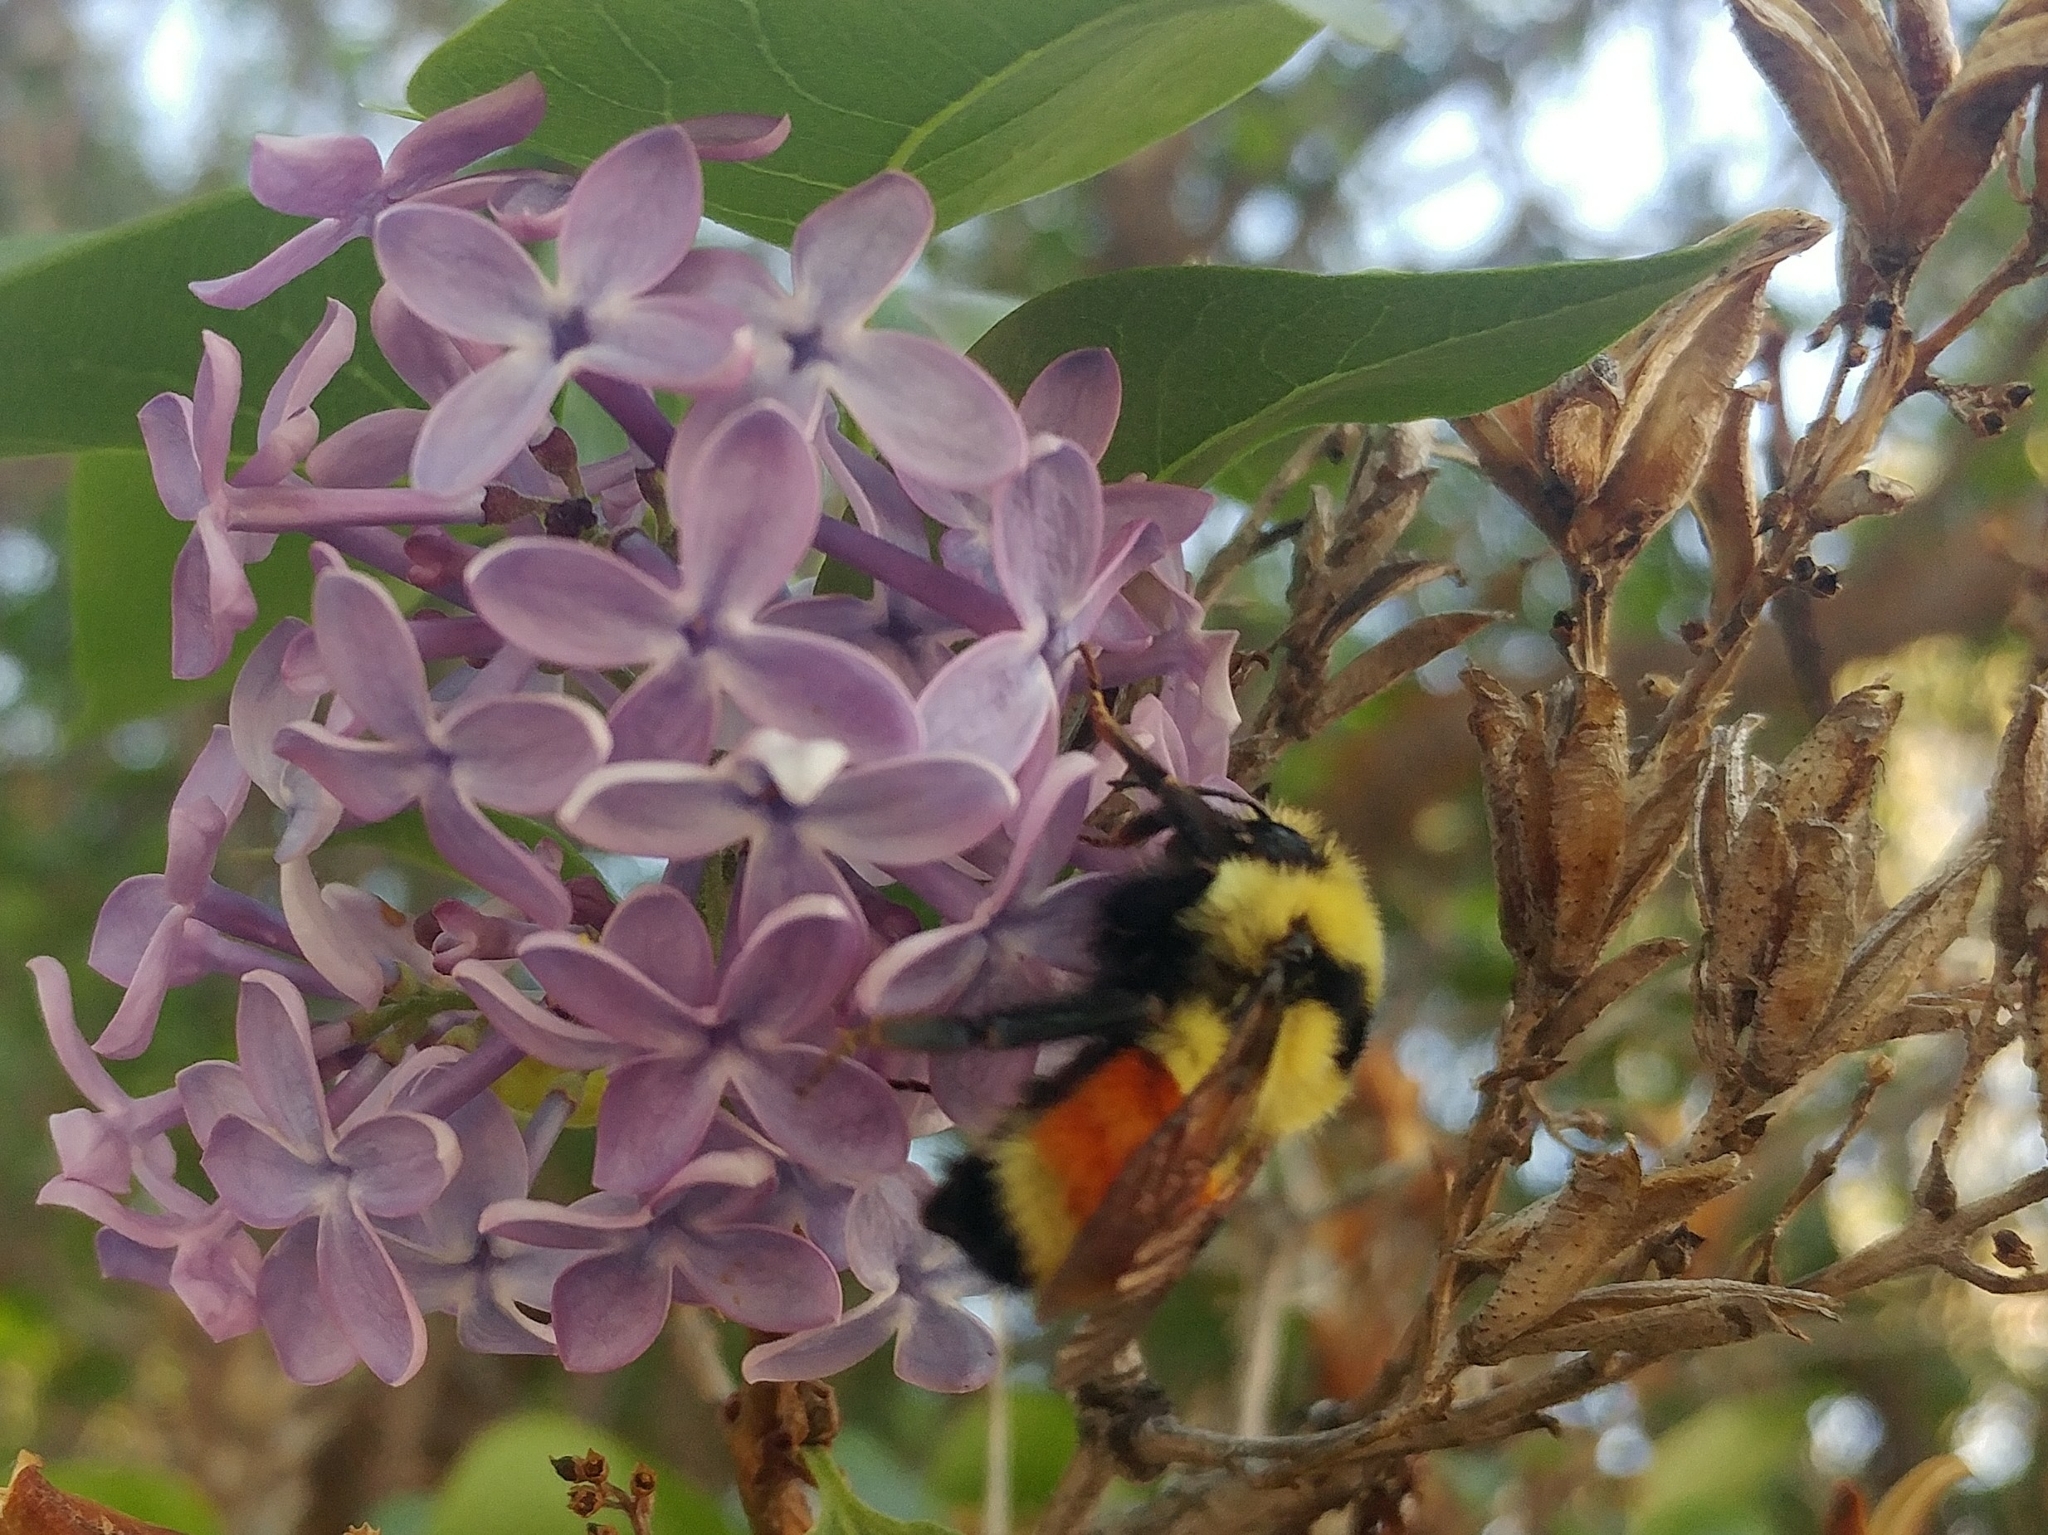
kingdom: Animalia
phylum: Arthropoda
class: Insecta
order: Hymenoptera
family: Apidae
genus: Bombus
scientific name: Bombus huntii
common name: Hunt bumble bee
